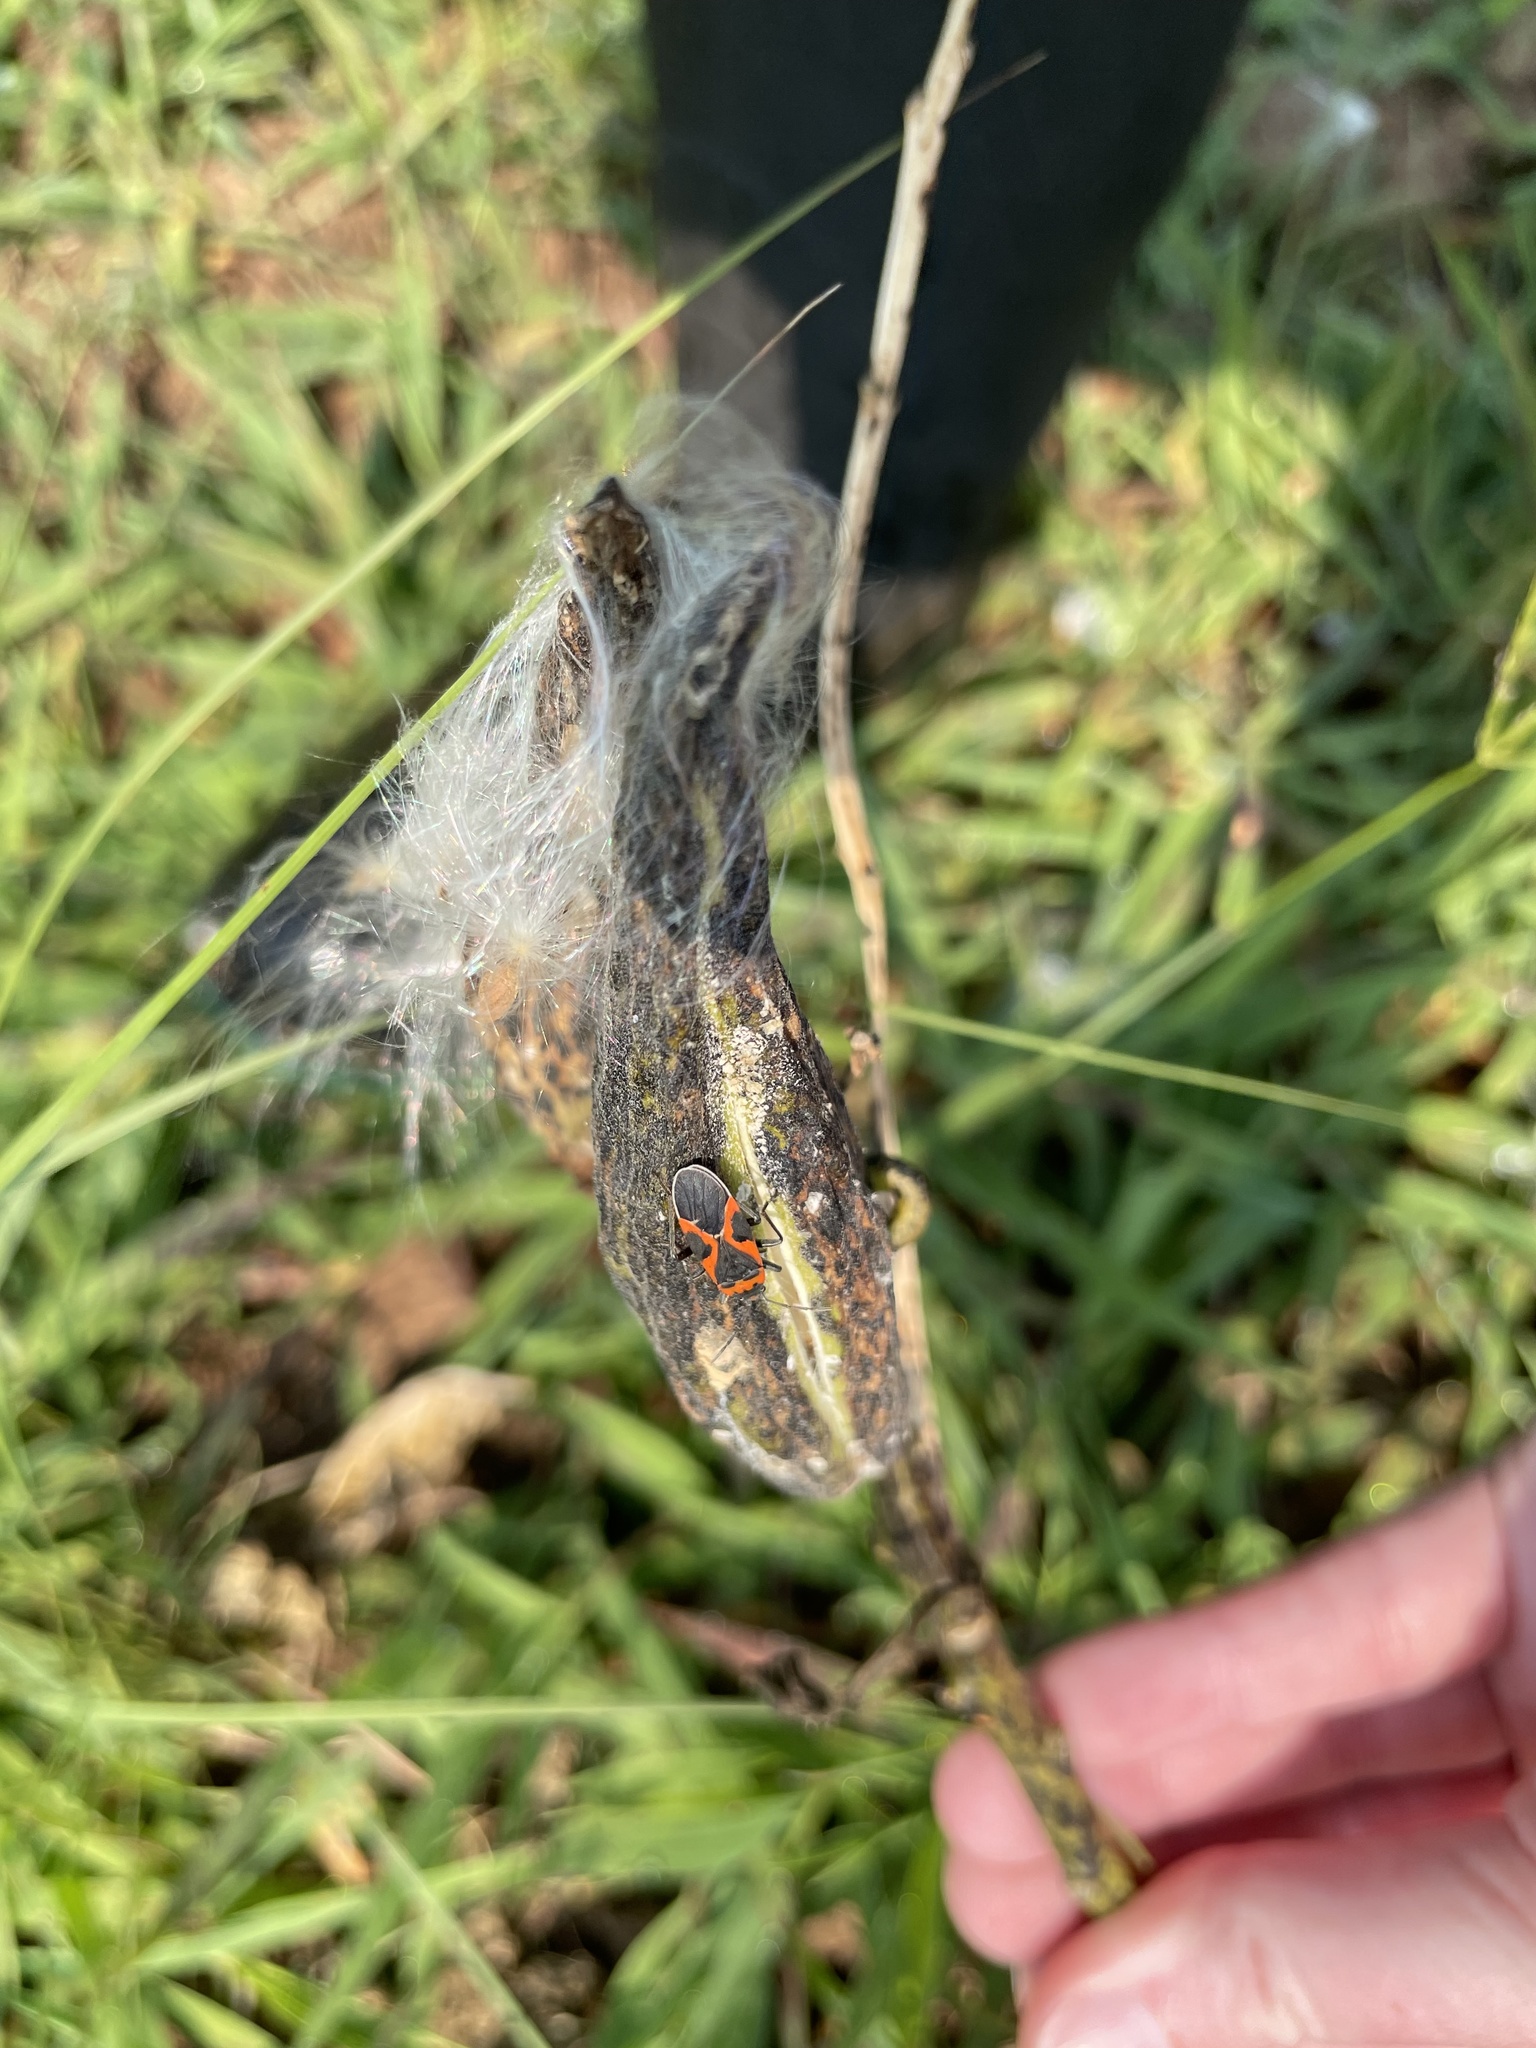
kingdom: Animalia
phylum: Arthropoda
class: Insecta
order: Hemiptera
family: Lygaeidae
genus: Lygaeus
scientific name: Lygaeus kalmii
